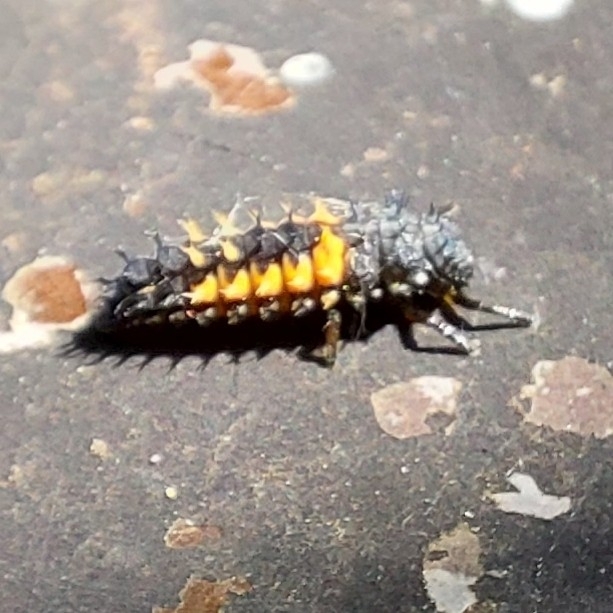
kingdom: Animalia
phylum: Arthropoda
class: Insecta
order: Coleoptera
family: Coccinellidae
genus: Harmonia
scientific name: Harmonia axyridis
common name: Harlequin ladybird
